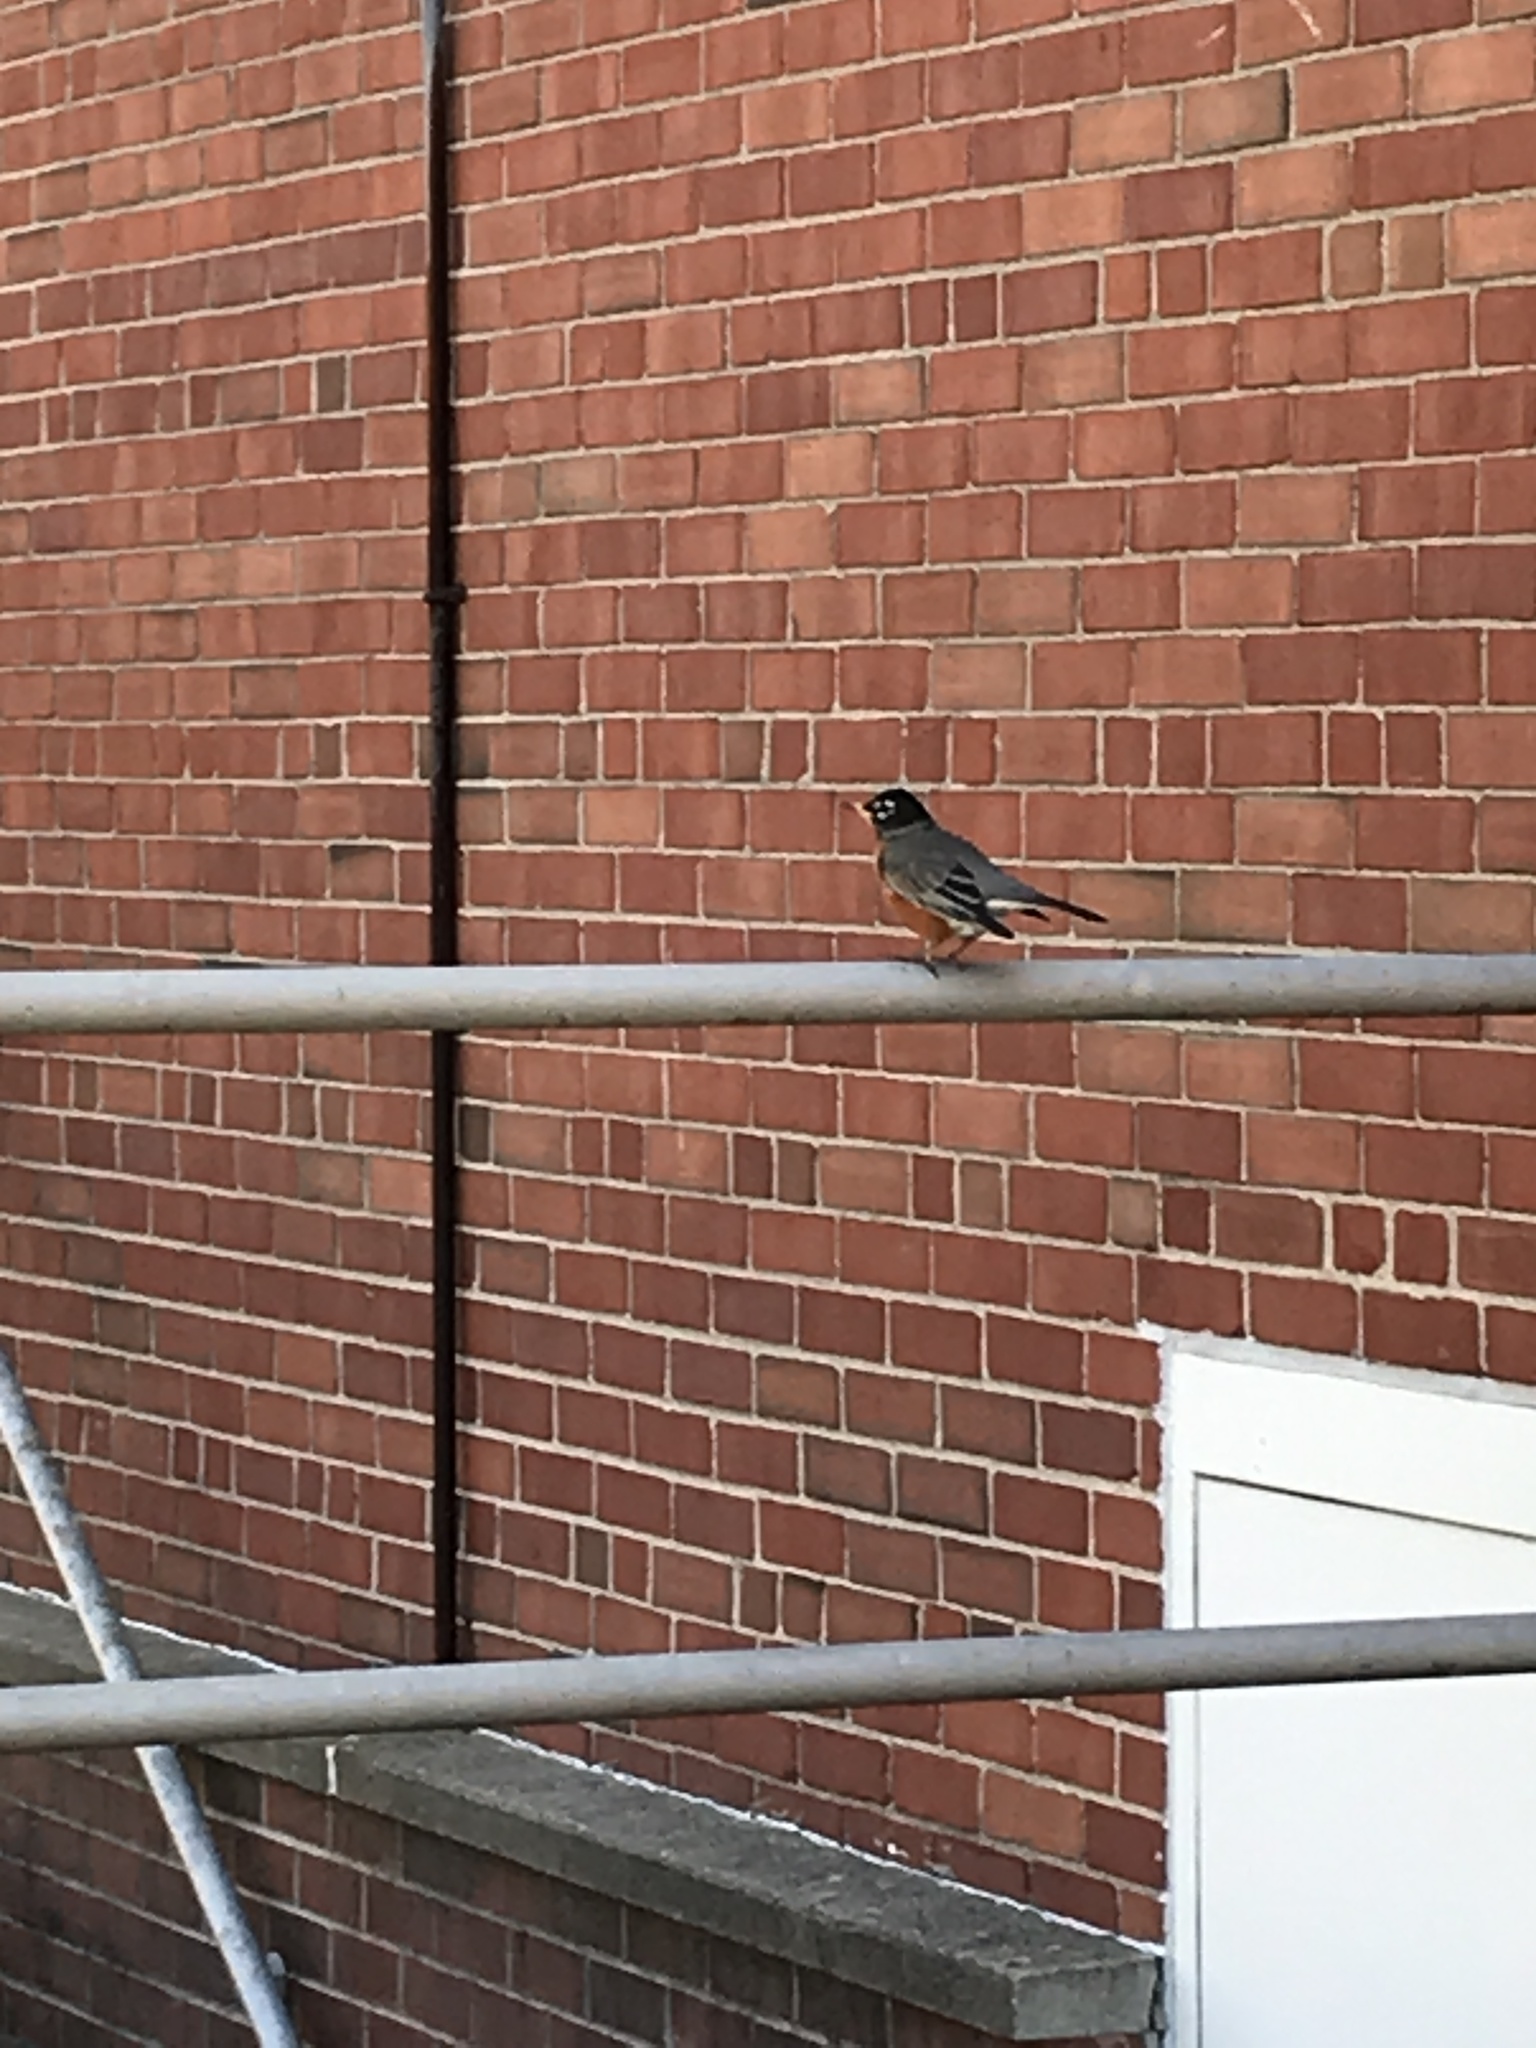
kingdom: Animalia
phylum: Chordata
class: Aves
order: Passeriformes
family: Turdidae
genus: Turdus
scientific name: Turdus migratorius
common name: American robin
